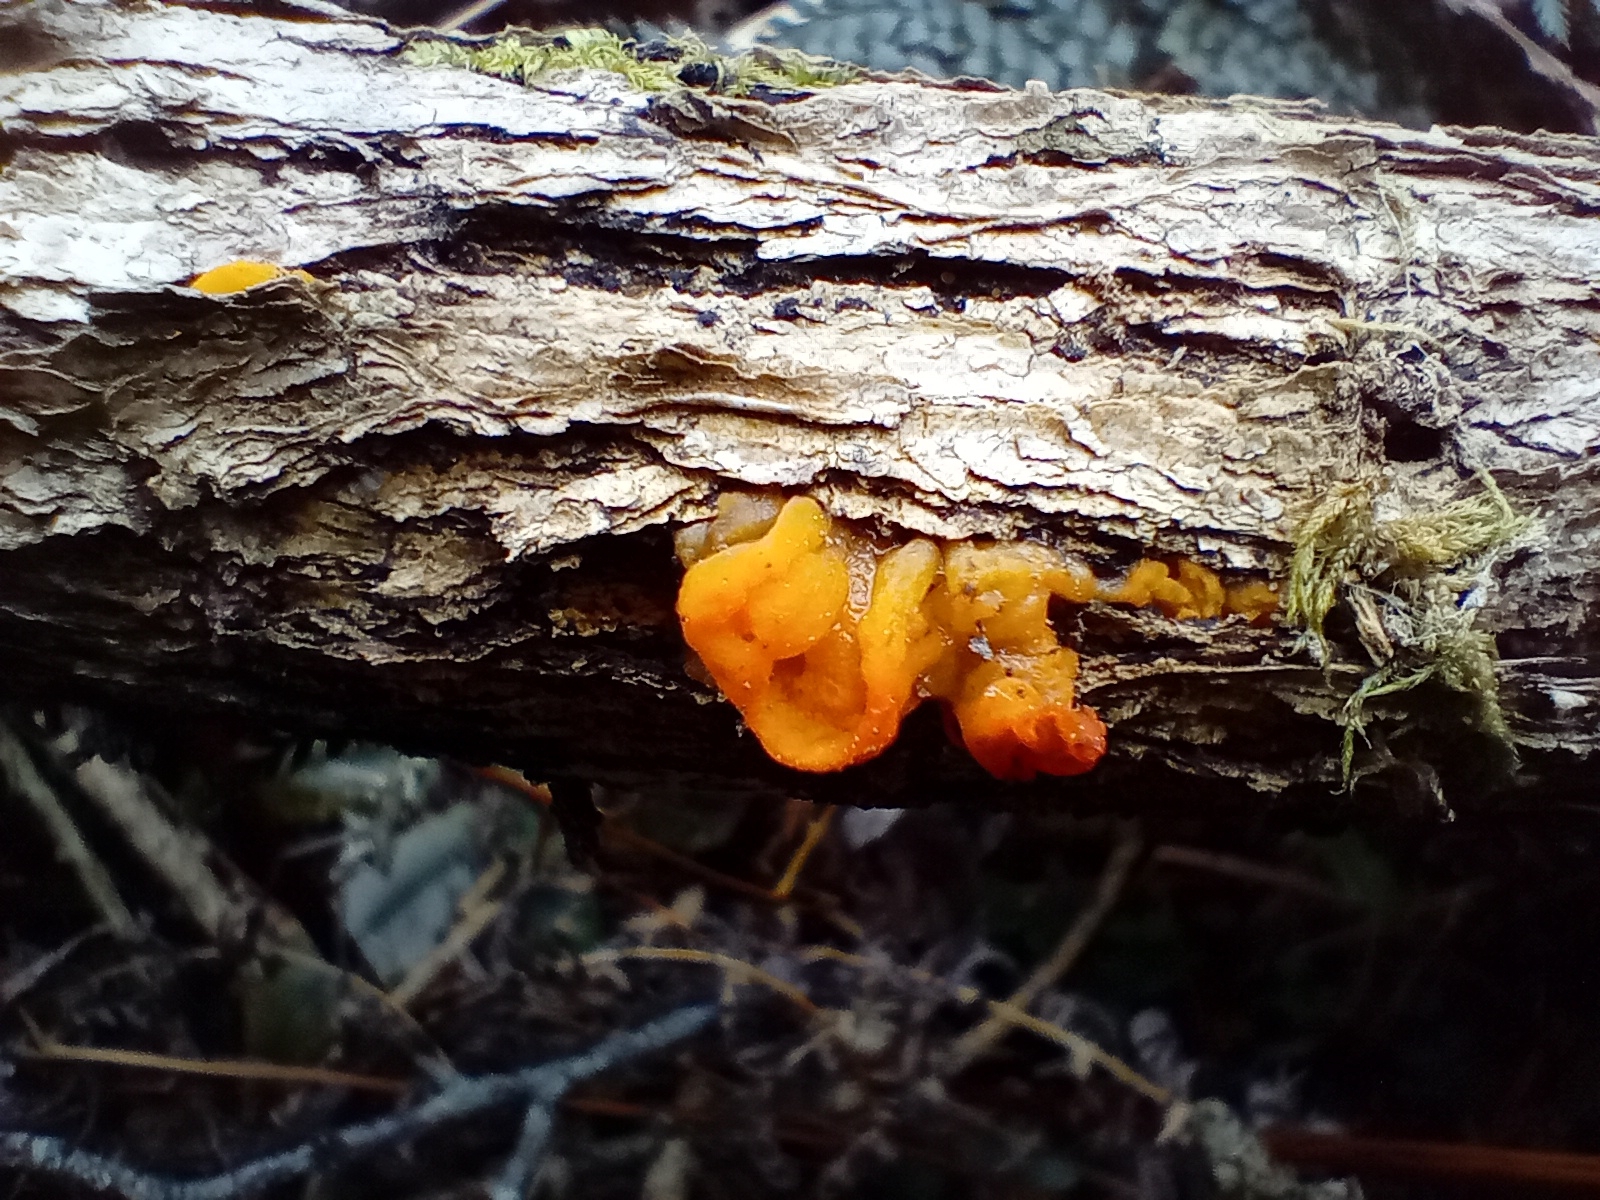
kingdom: Fungi
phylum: Basidiomycota
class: Tremellomycetes
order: Tremellales
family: Tremellaceae
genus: Tremella
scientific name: Tremella mesenterica
